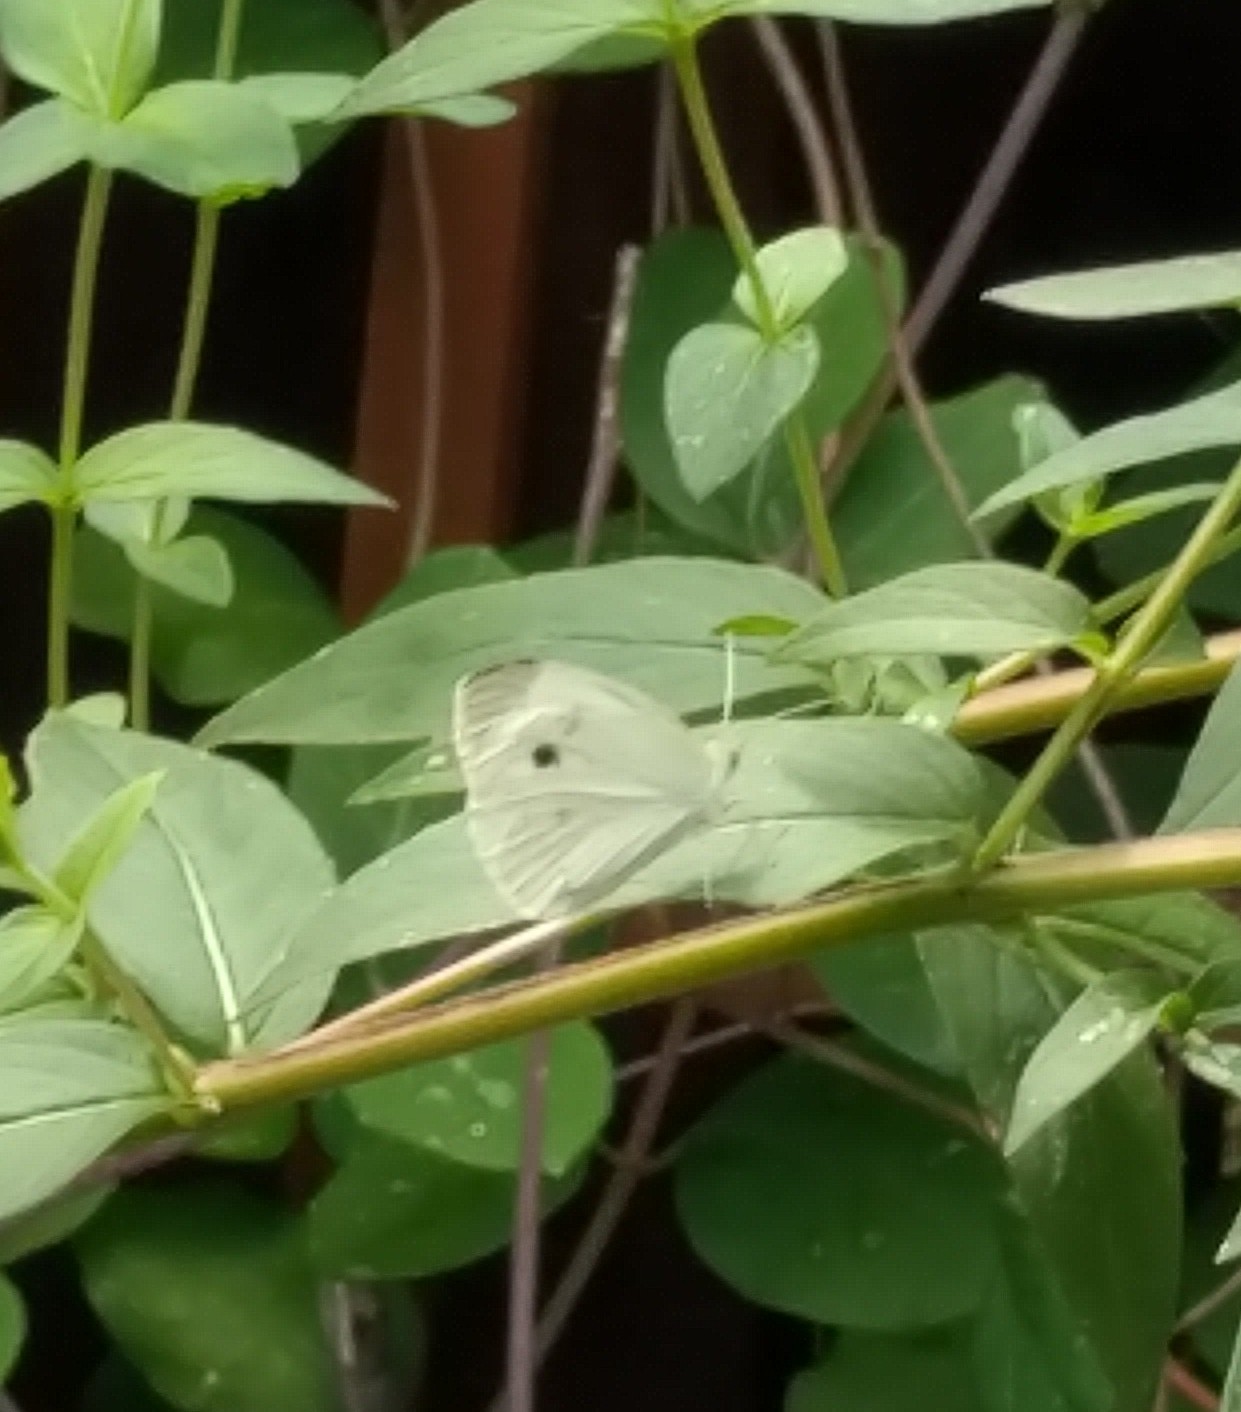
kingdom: Animalia
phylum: Arthropoda
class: Insecta
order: Lepidoptera
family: Pieridae
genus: Pieris
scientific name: Pieris rapae
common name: Small white
